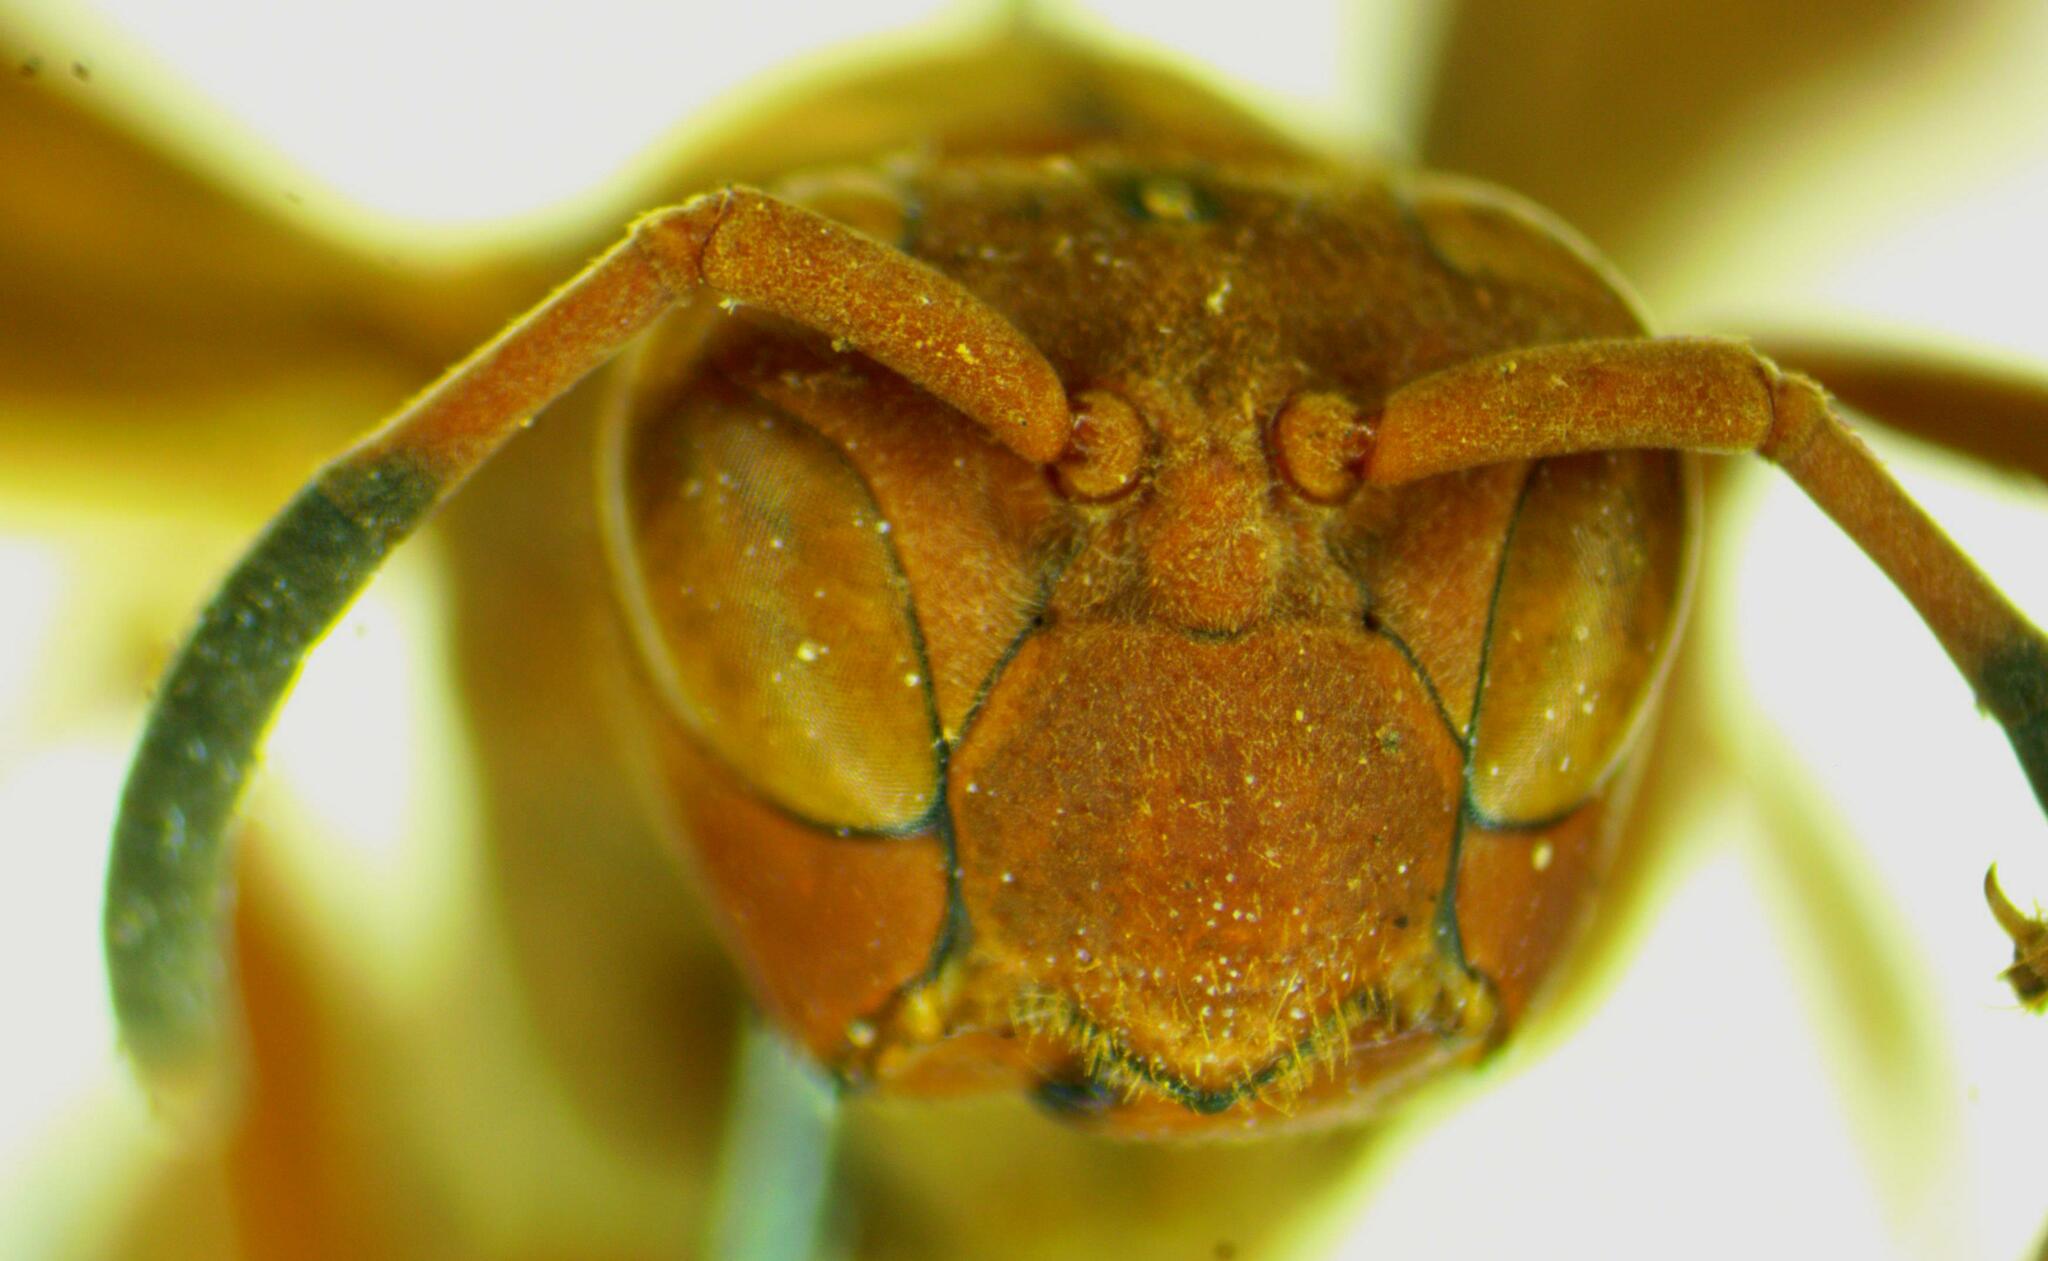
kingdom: Animalia
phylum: Arthropoda
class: Insecta
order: Hymenoptera
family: Eumenidae
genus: Polistes
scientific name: Polistes canadensis
